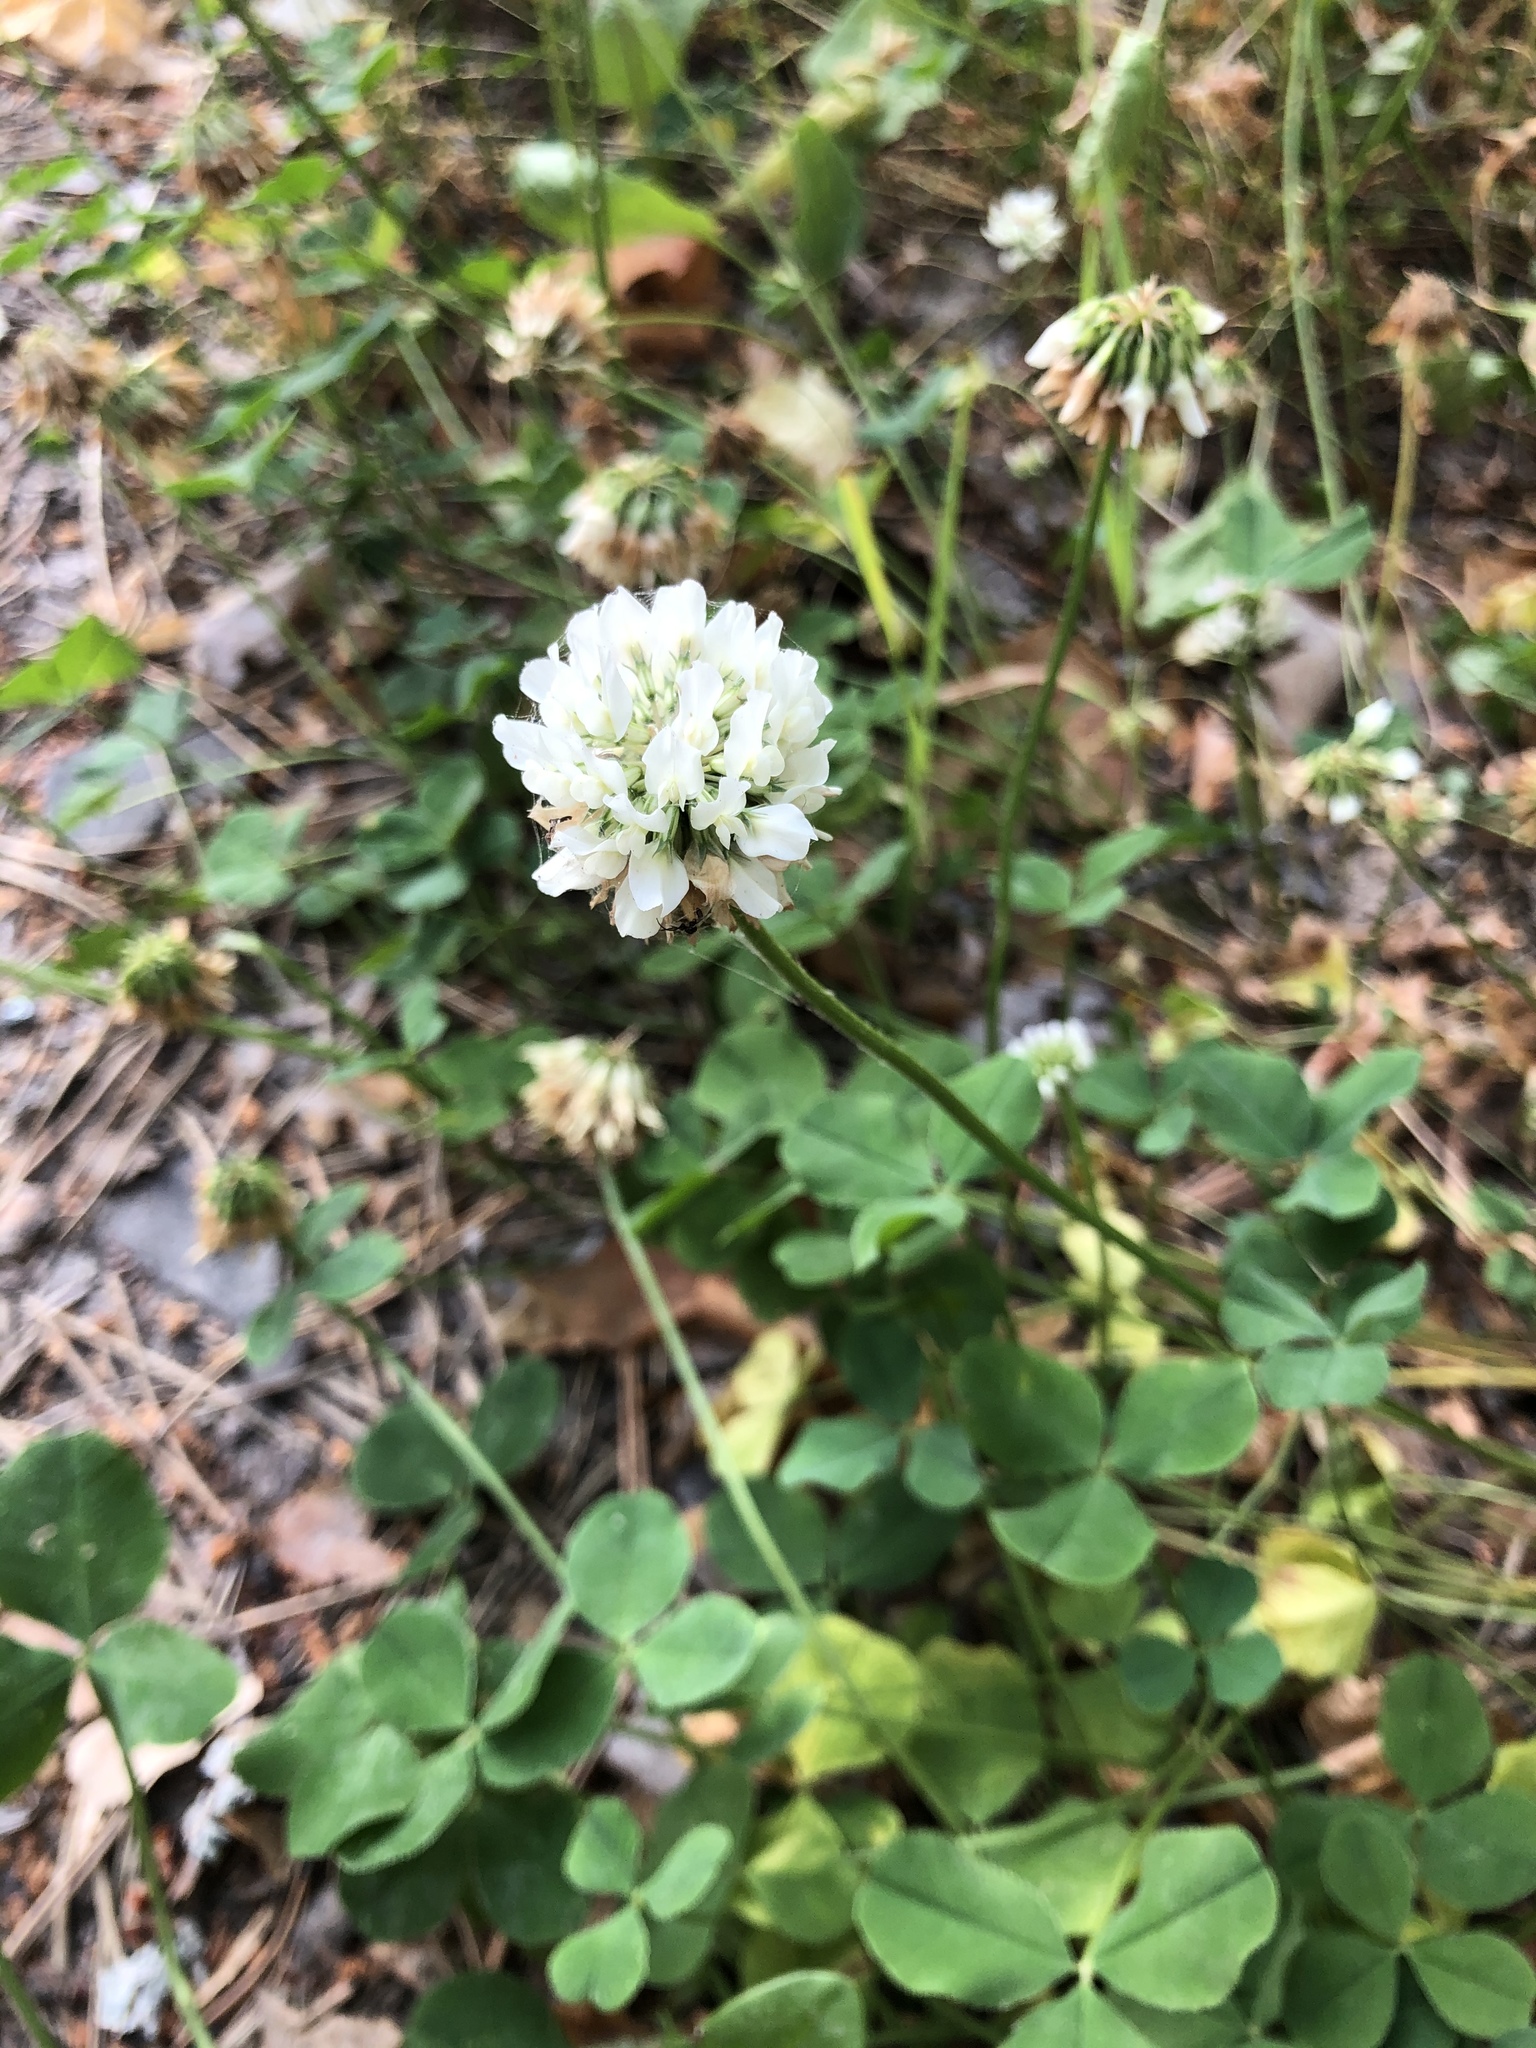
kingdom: Plantae
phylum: Tracheophyta
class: Magnoliopsida
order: Fabales
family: Fabaceae
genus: Trifolium
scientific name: Trifolium repens
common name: White clover
